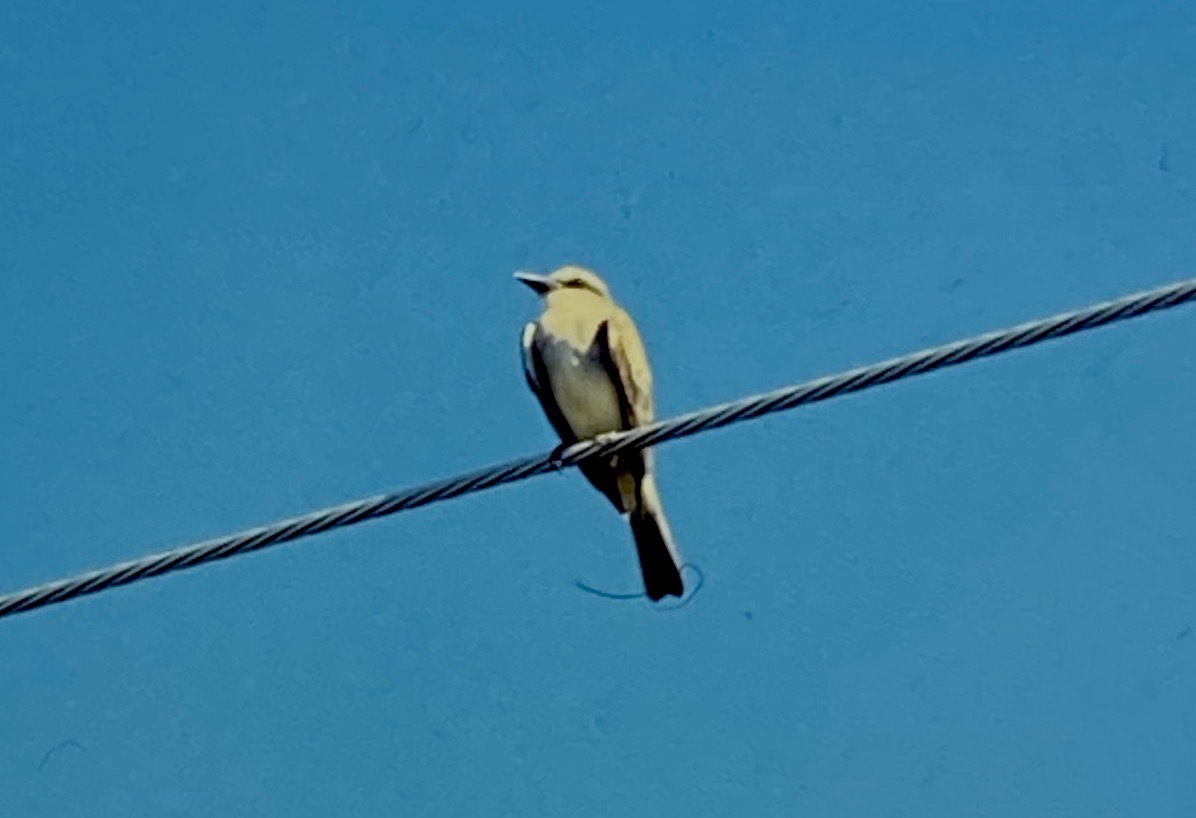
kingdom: Animalia
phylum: Chordata
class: Aves
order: Passeriformes
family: Tyrannidae
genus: Tyrannus
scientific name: Tyrannus dominicensis
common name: Gray kingbird
